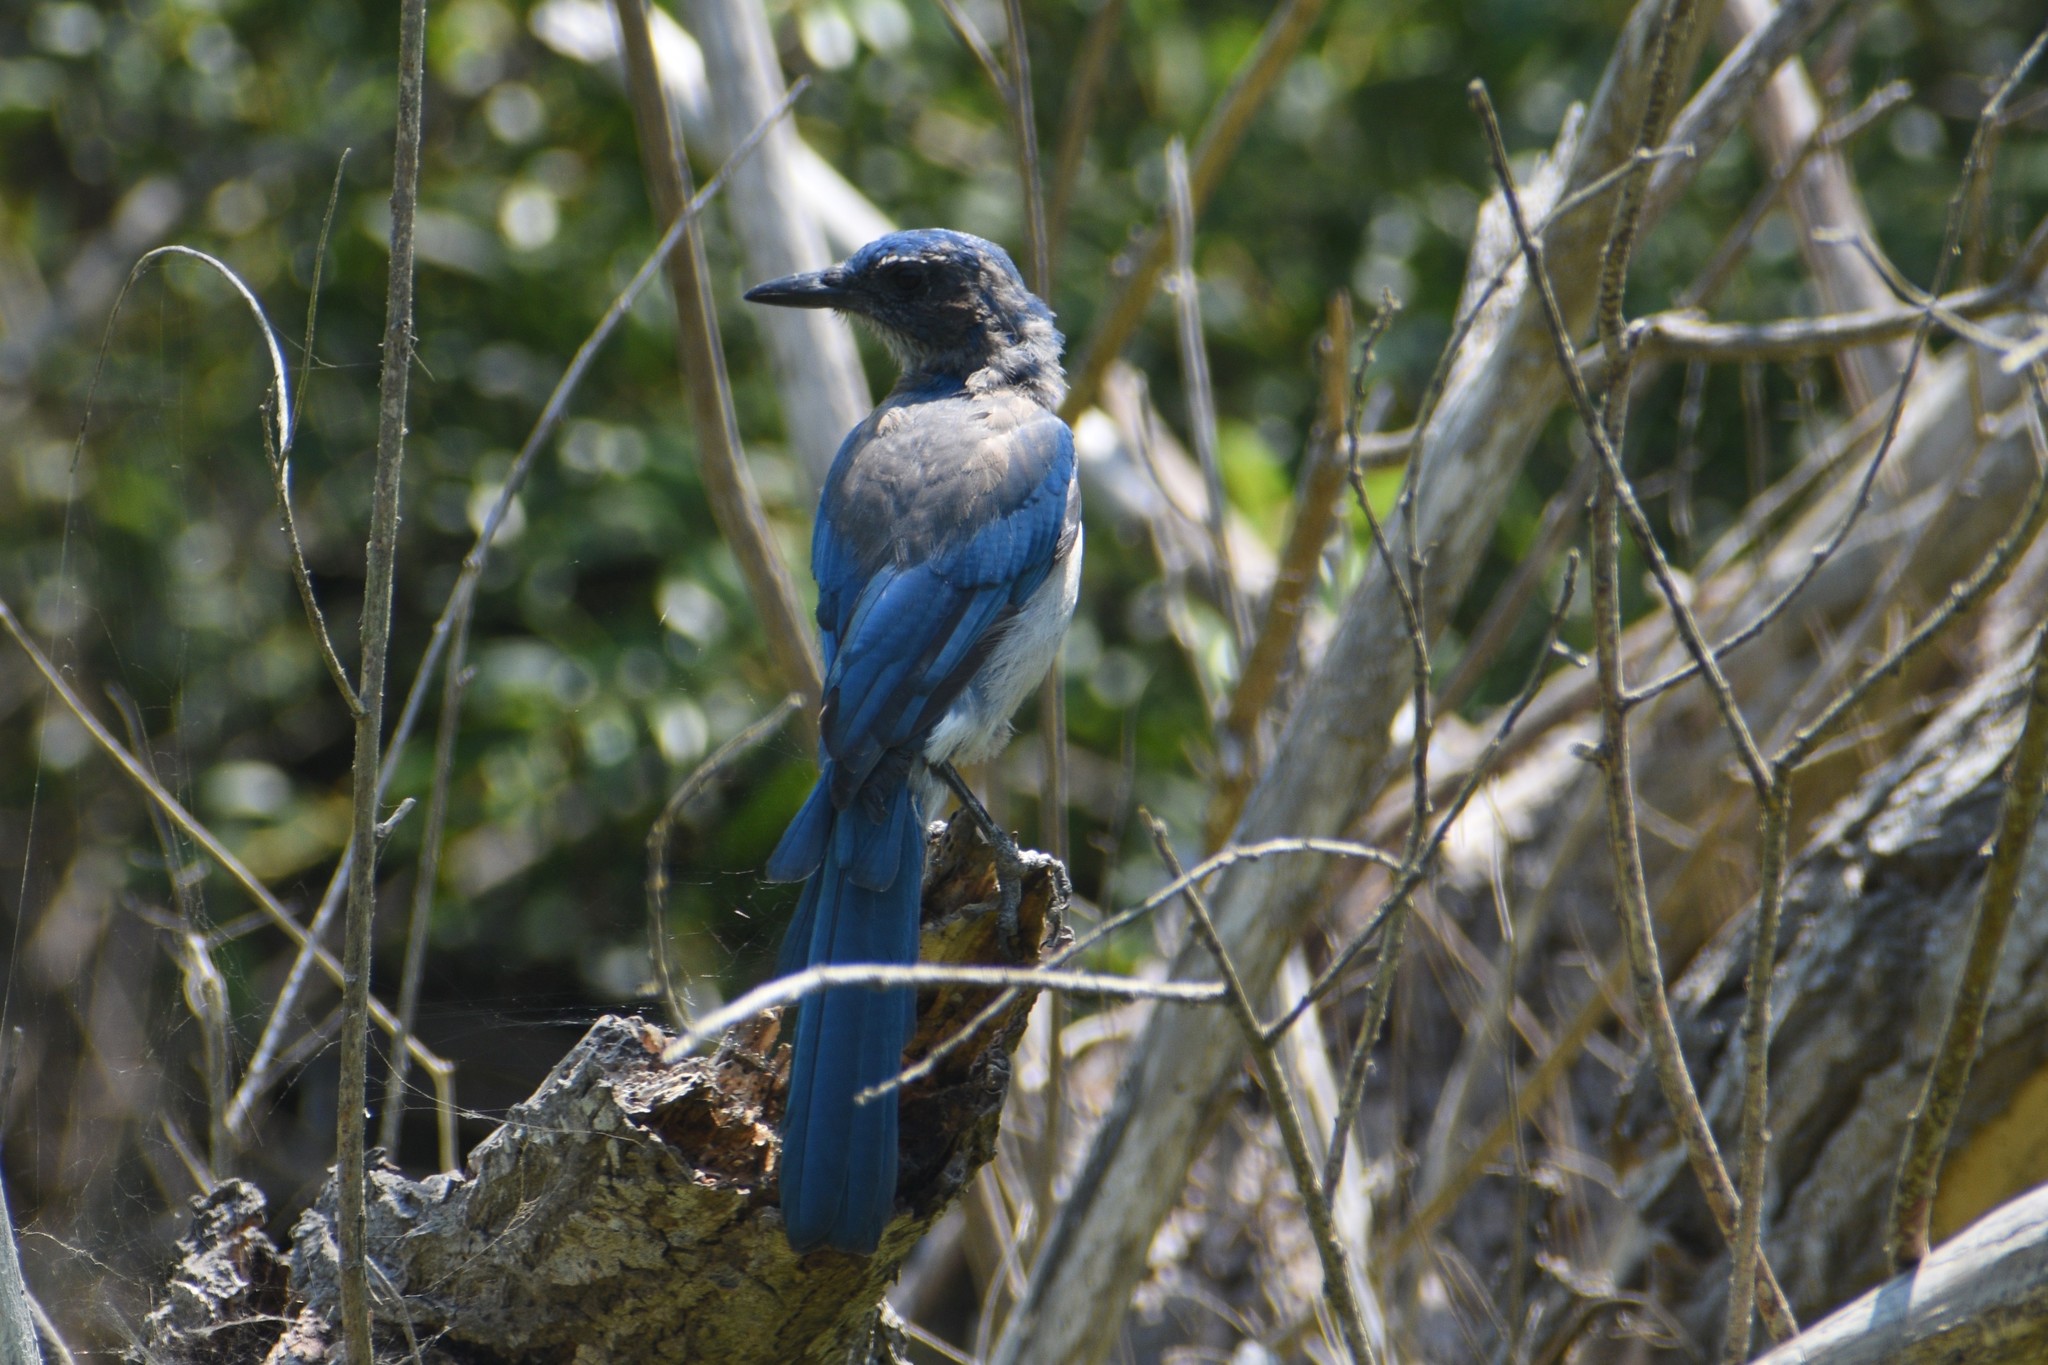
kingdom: Animalia
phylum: Chordata
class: Aves
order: Passeriformes
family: Corvidae
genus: Aphelocoma
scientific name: Aphelocoma californica
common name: California scrub-jay
